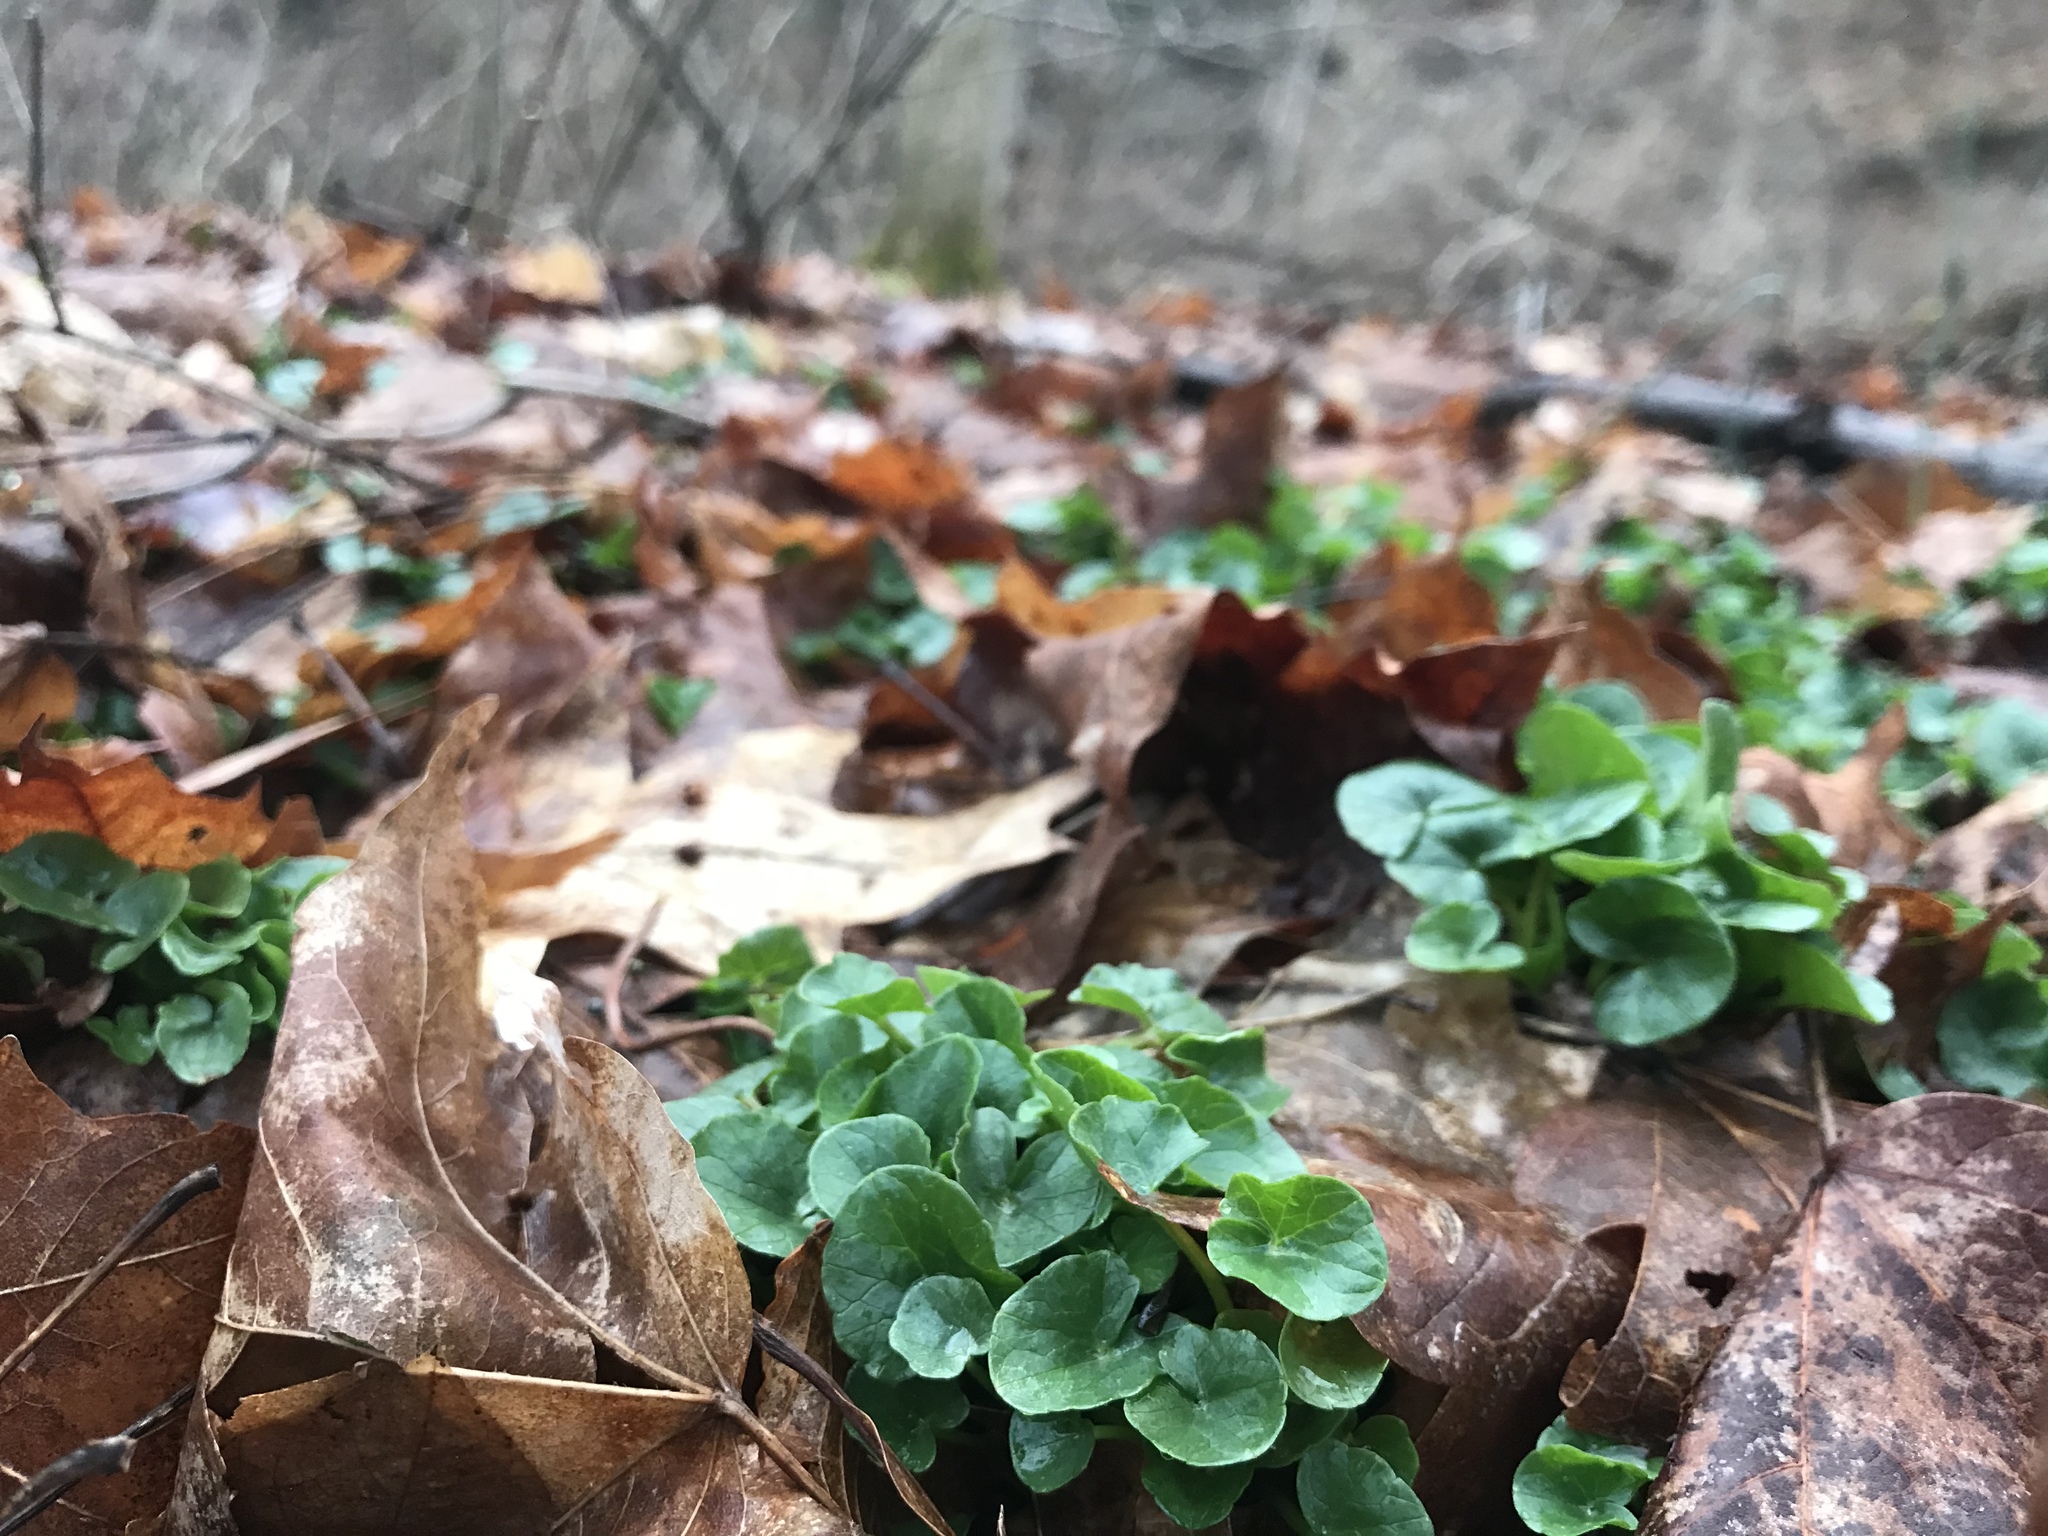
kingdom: Plantae
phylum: Tracheophyta
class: Magnoliopsida
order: Ranunculales
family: Ranunculaceae
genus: Ficaria
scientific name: Ficaria verna
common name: Lesser celandine
